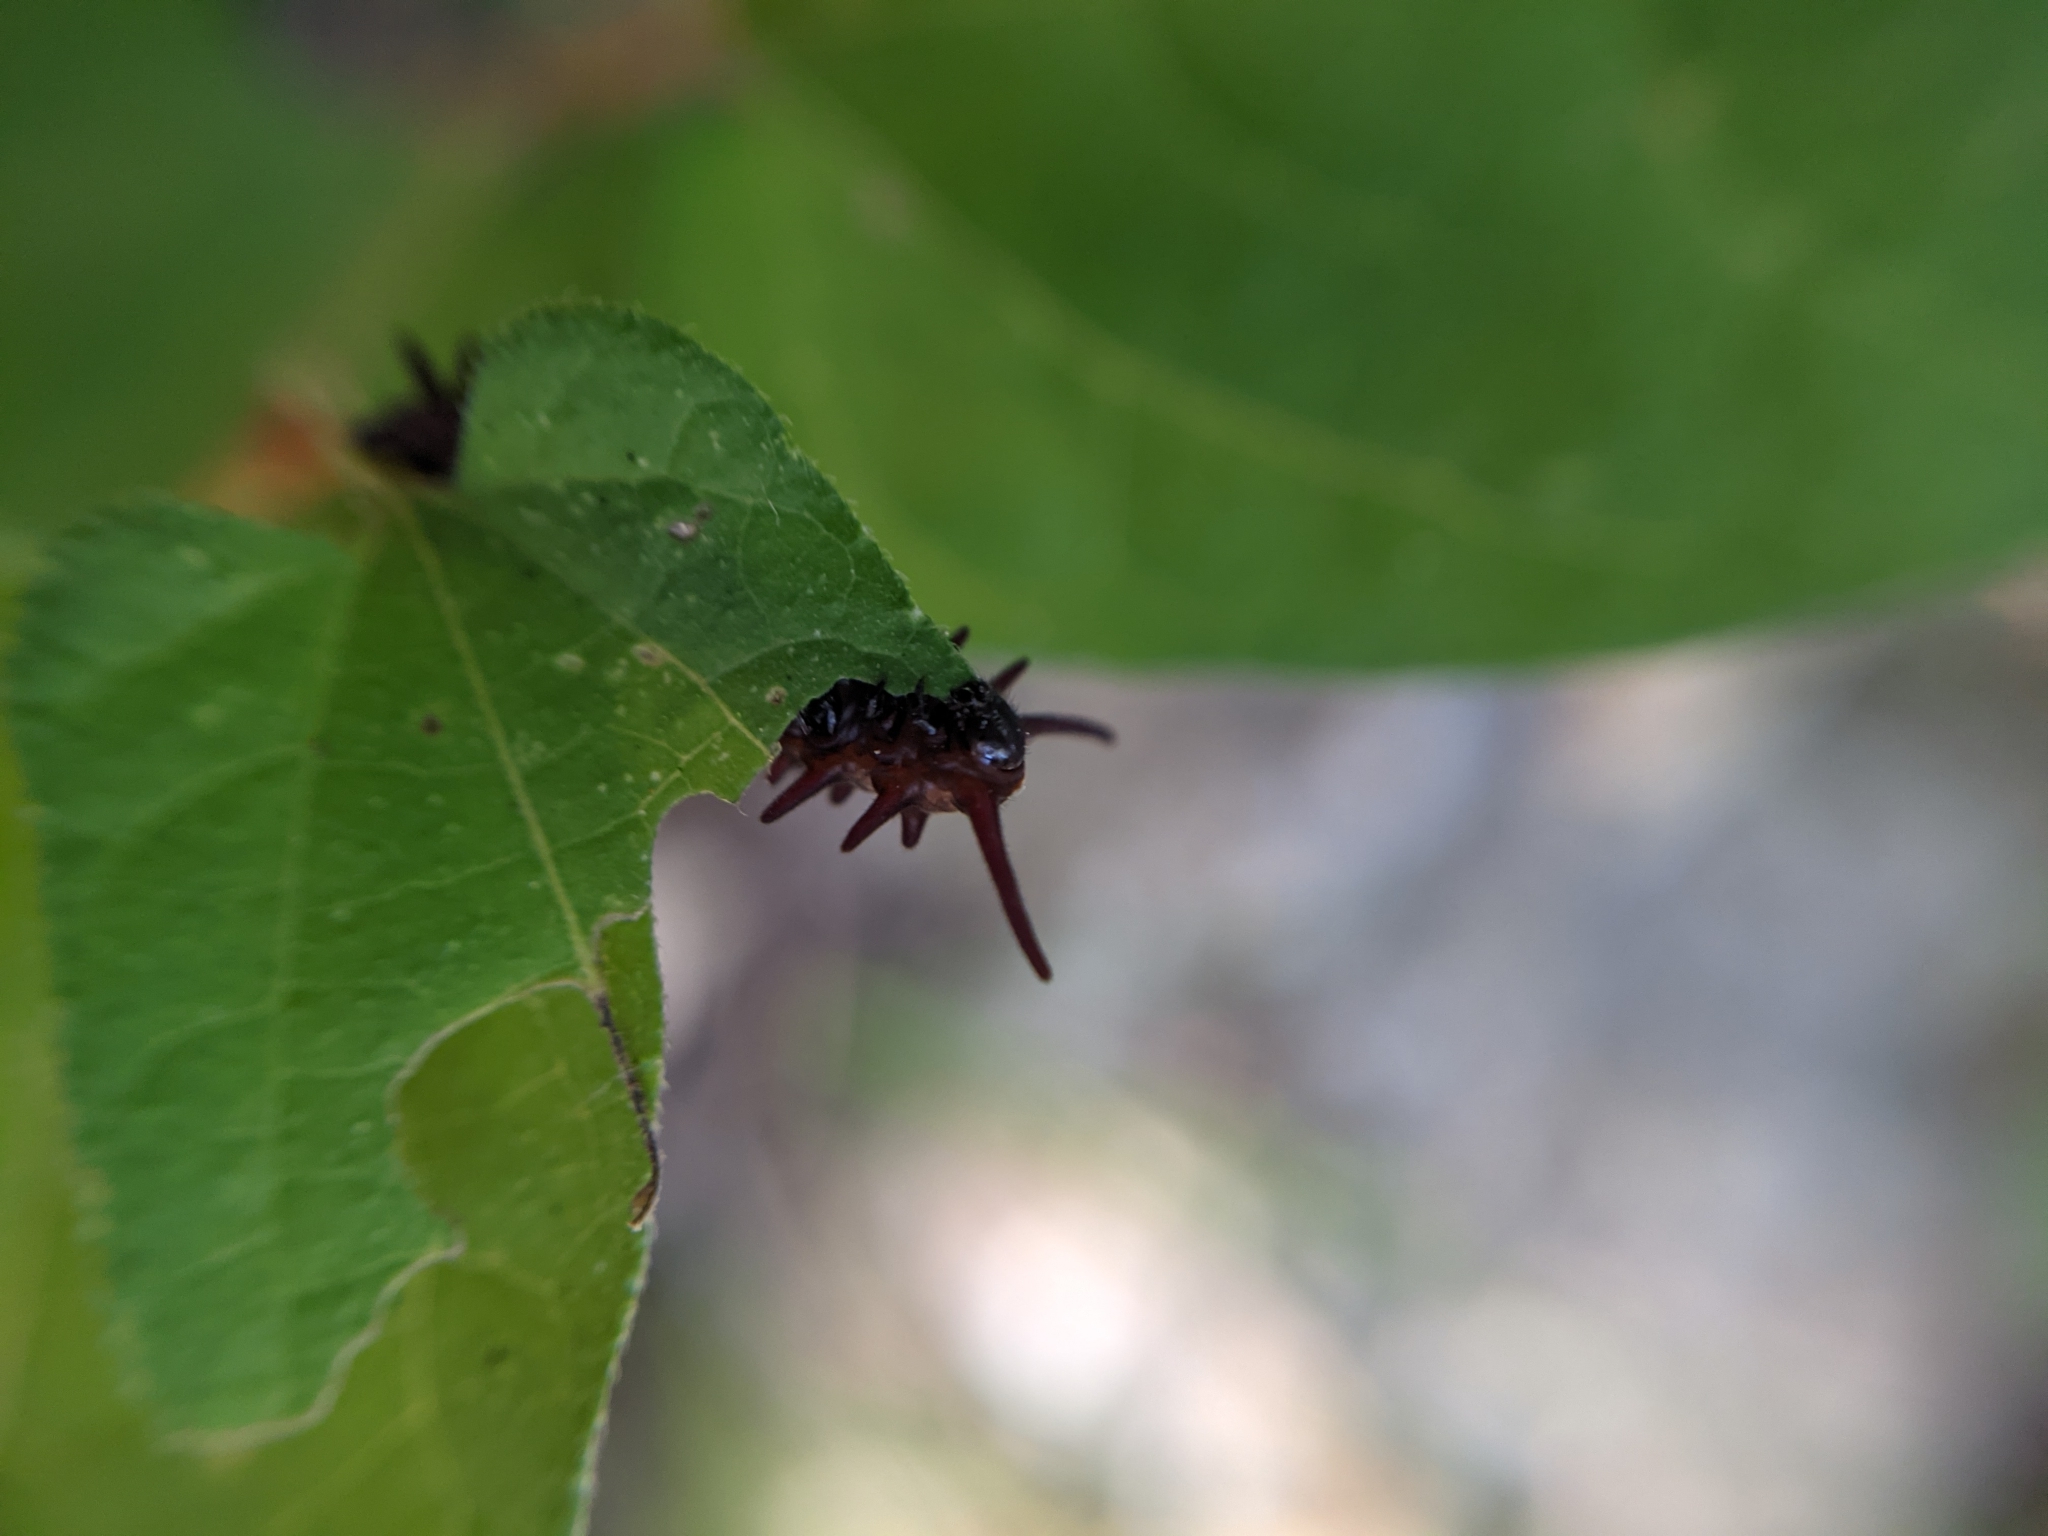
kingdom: Animalia
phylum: Arthropoda
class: Insecta
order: Lepidoptera
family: Papilionidae
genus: Battus
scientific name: Battus philenor
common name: Pipevine swallowtail
